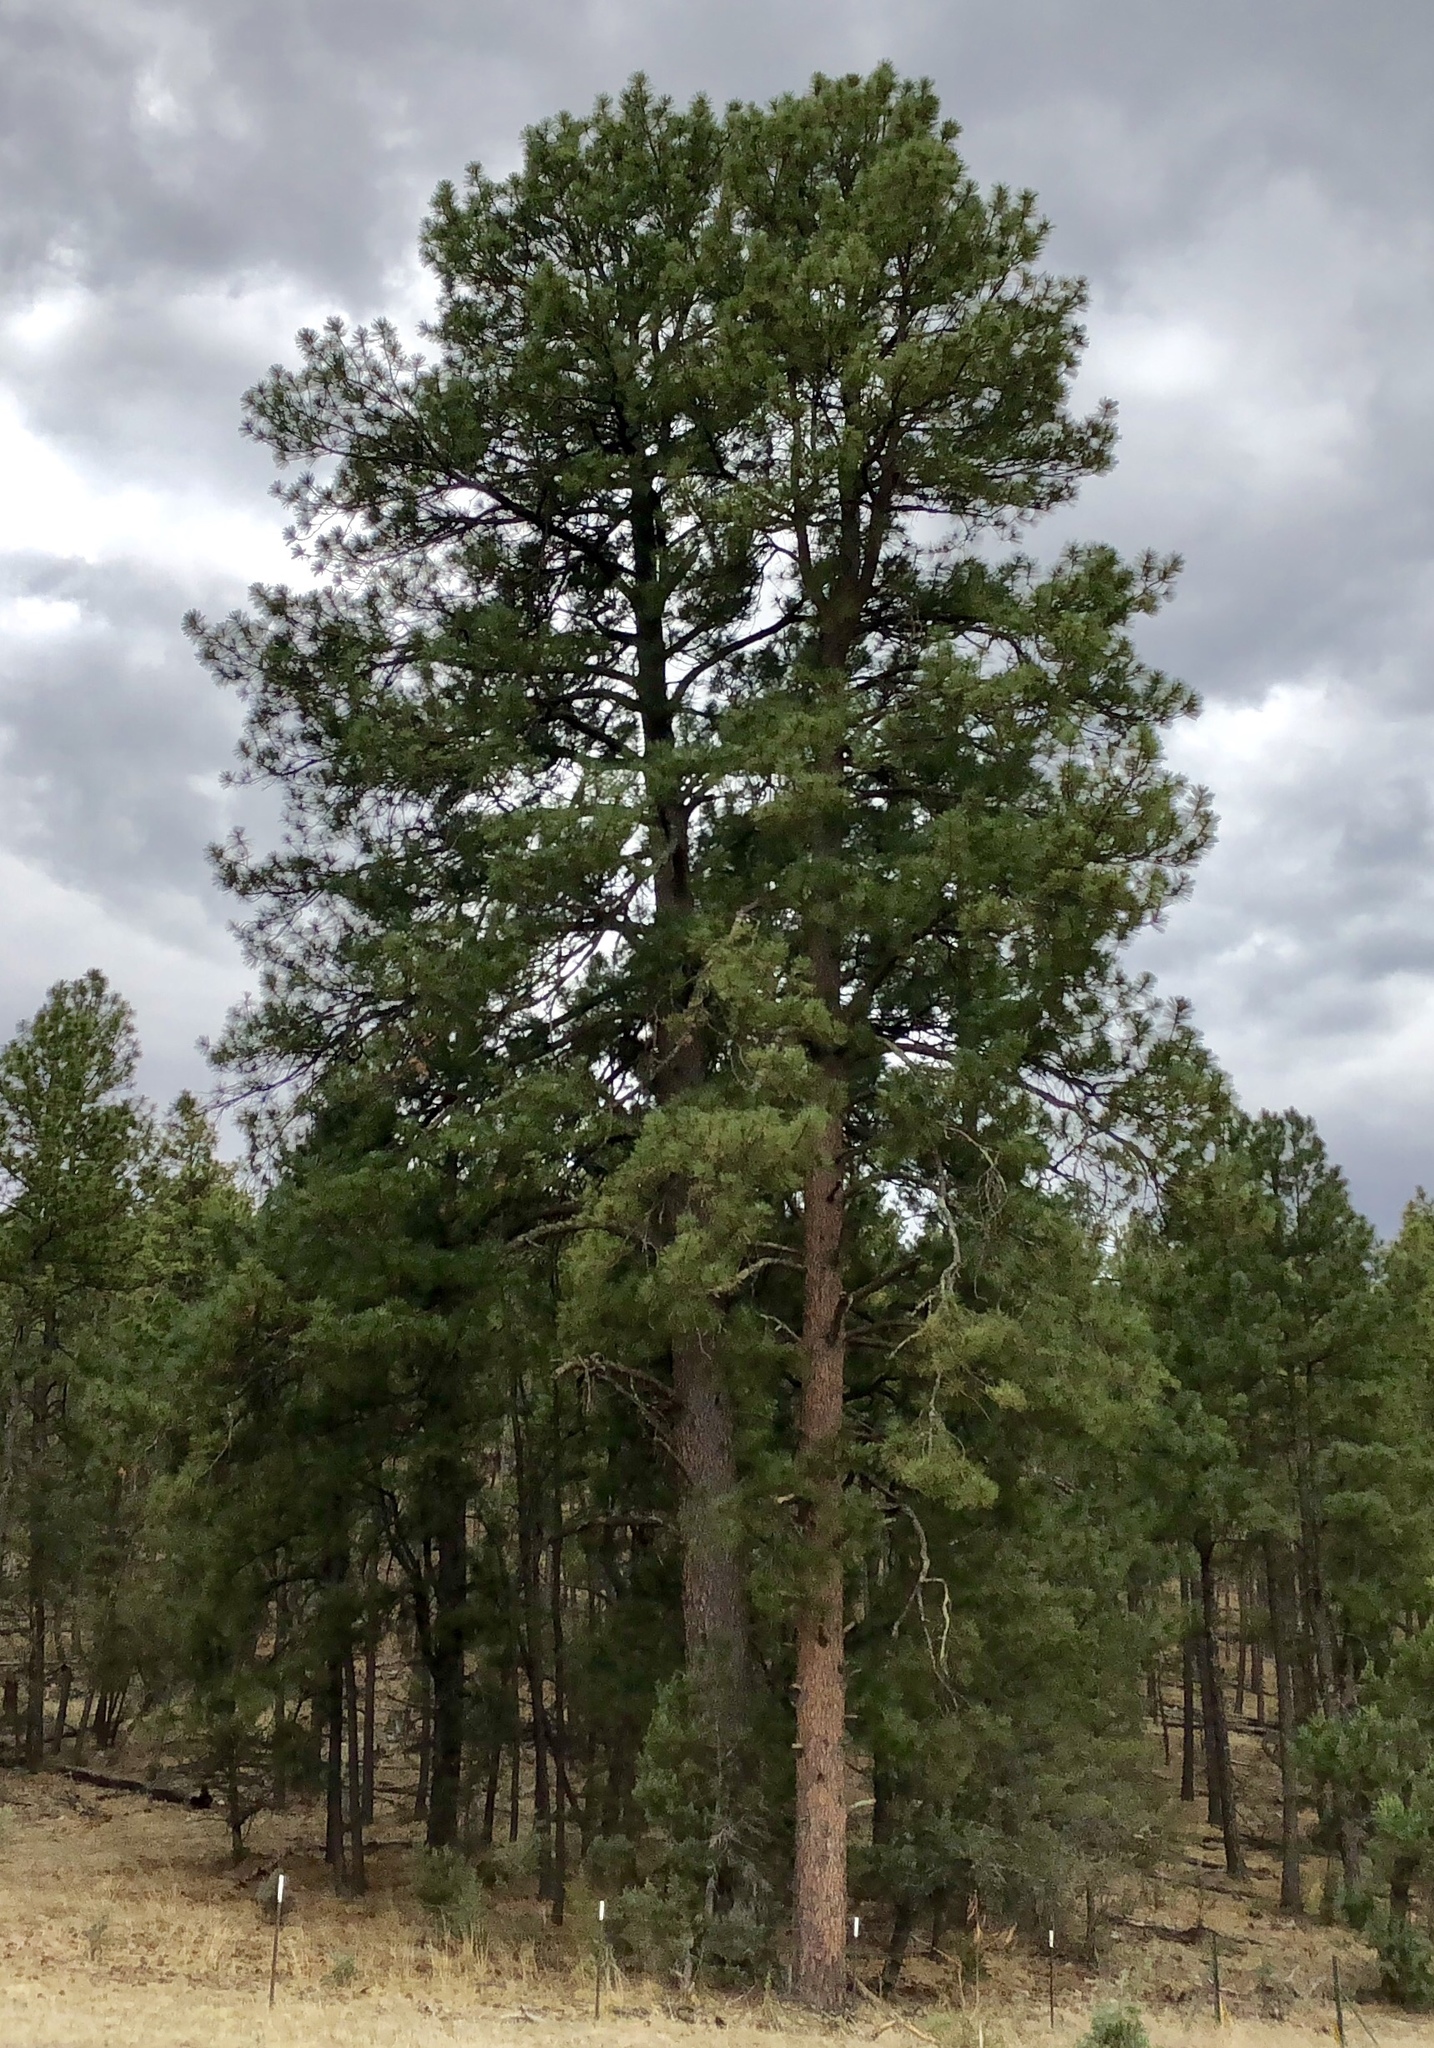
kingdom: Plantae
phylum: Tracheophyta
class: Pinopsida
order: Pinales
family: Pinaceae
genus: Pinus
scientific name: Pinus ponderosa
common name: Western yellow-pine
